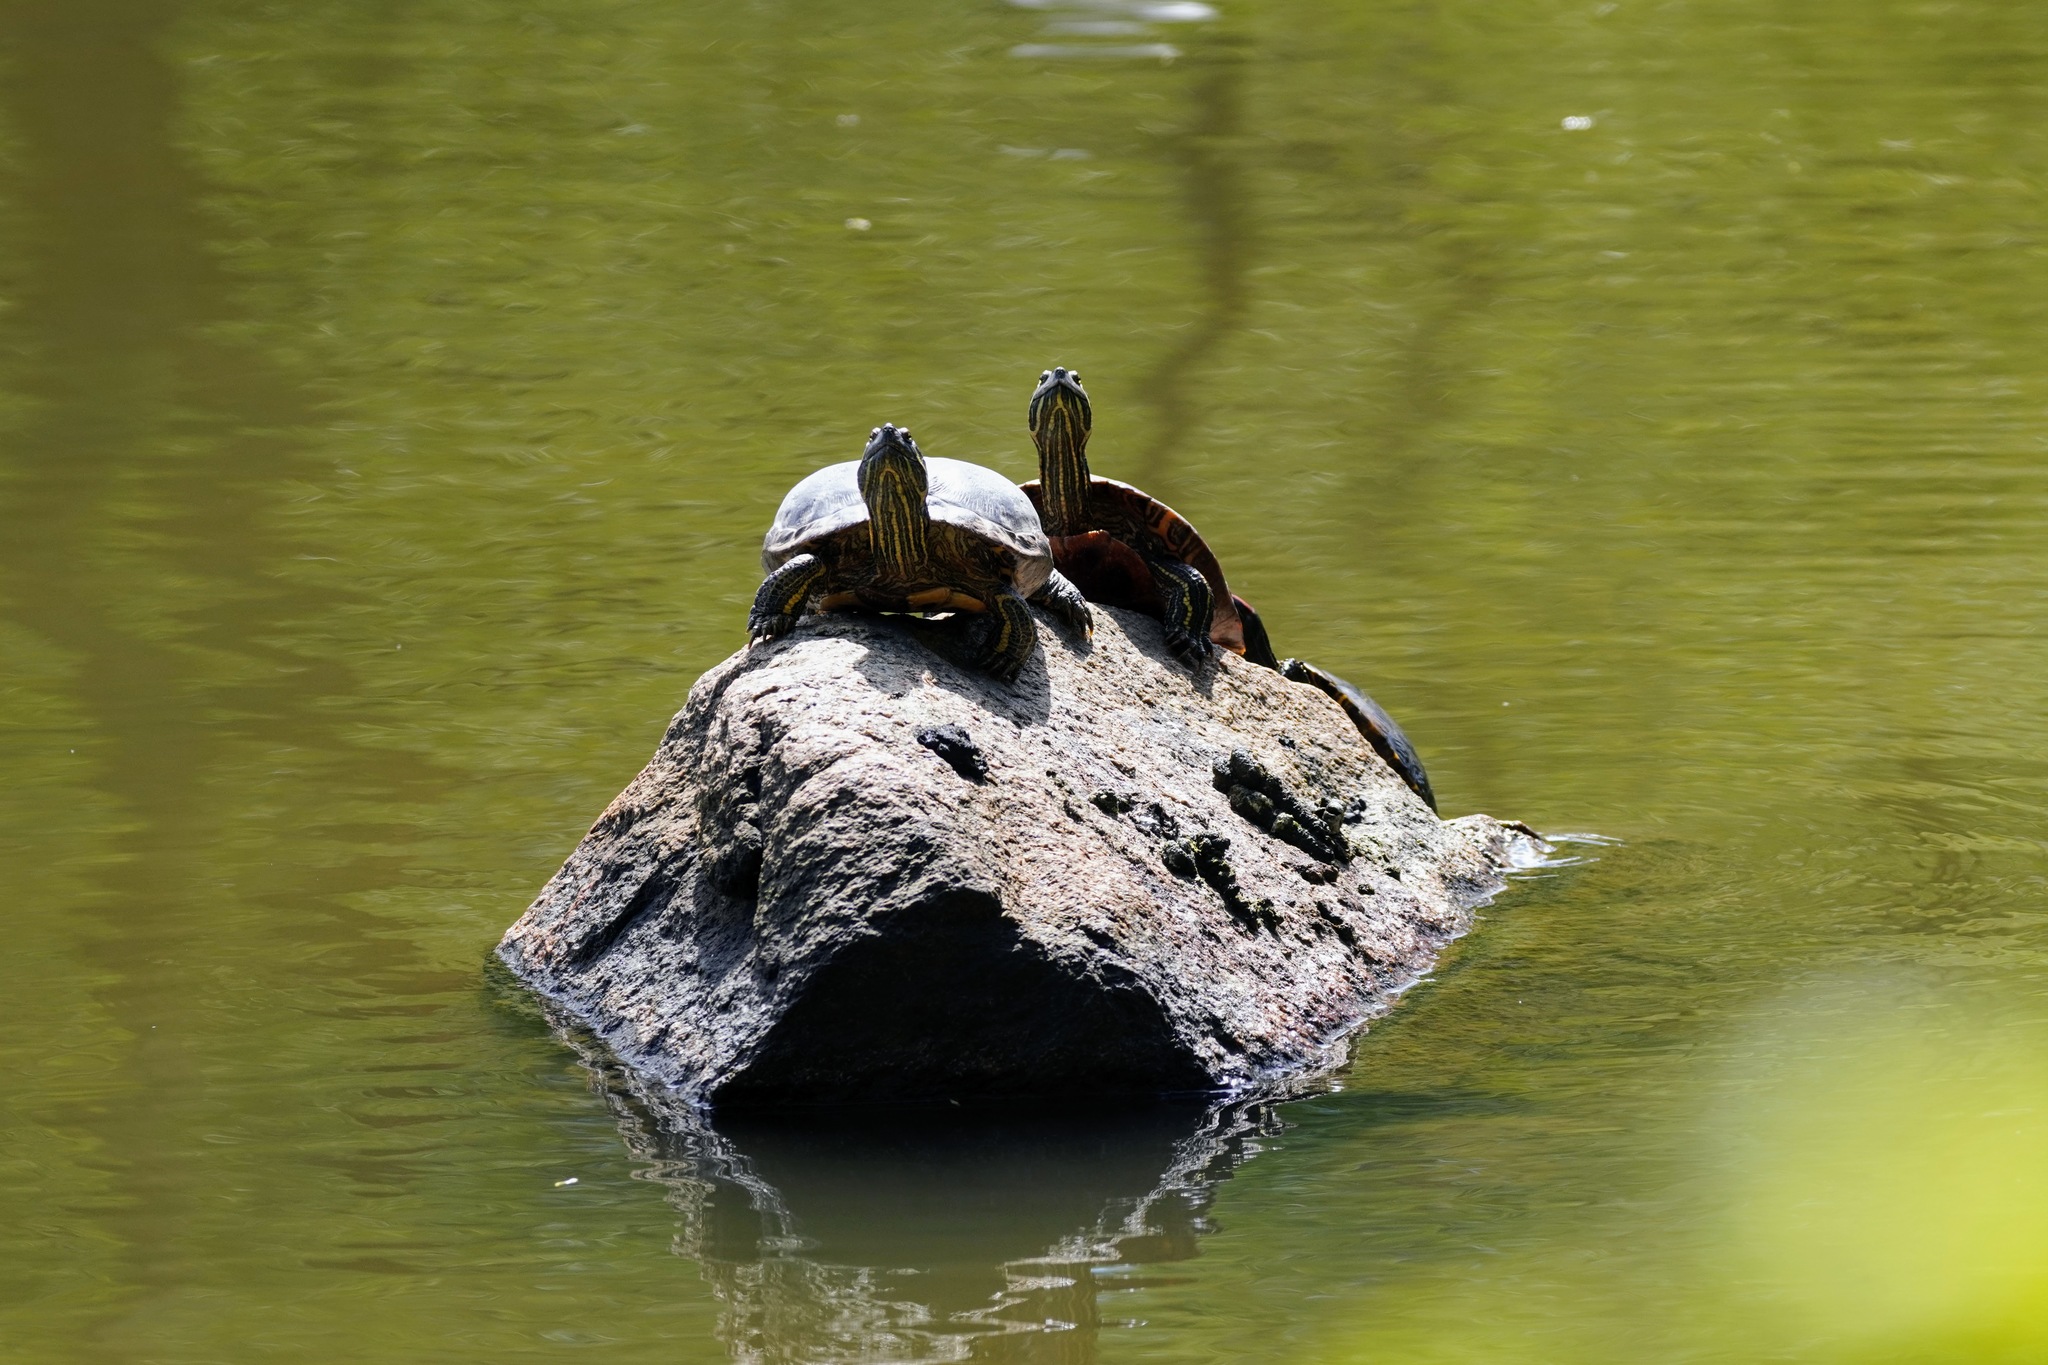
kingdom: Animalia
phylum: Chordata
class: Testudines
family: Emydidae
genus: Trachemys
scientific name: Trachemys scripta
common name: Slider
